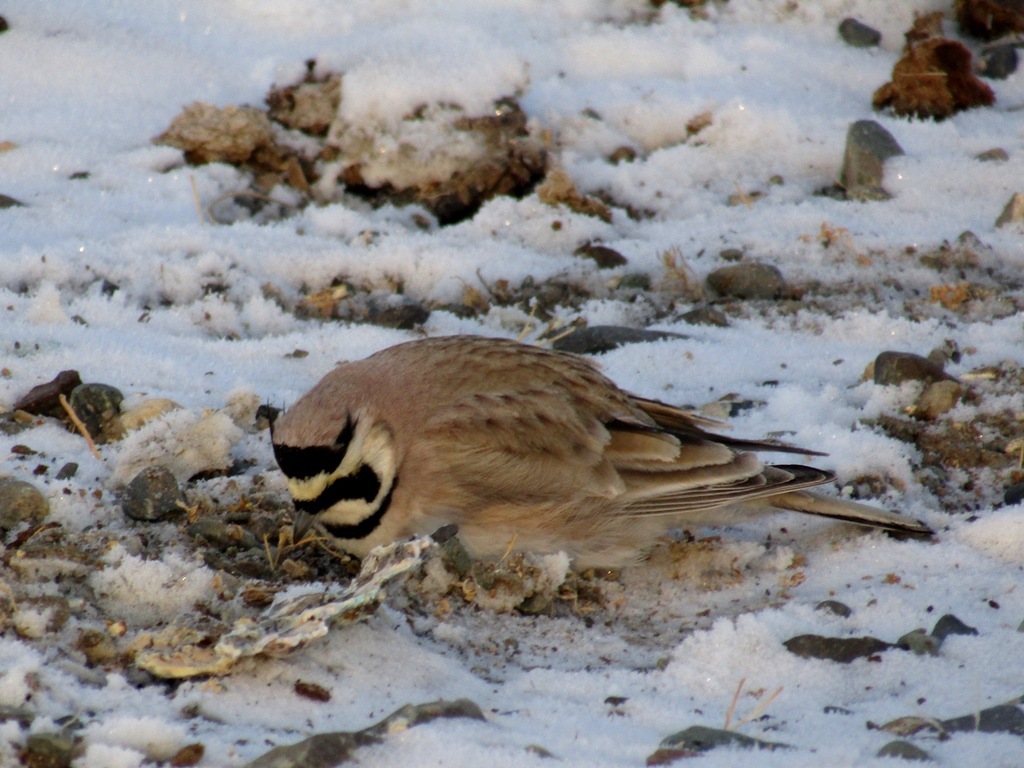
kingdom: Animalia
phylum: Chordata
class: Aves
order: Passeriformes
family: Alaudidae
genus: Eremophila
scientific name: Eremophila alpestris
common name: Horned lark
